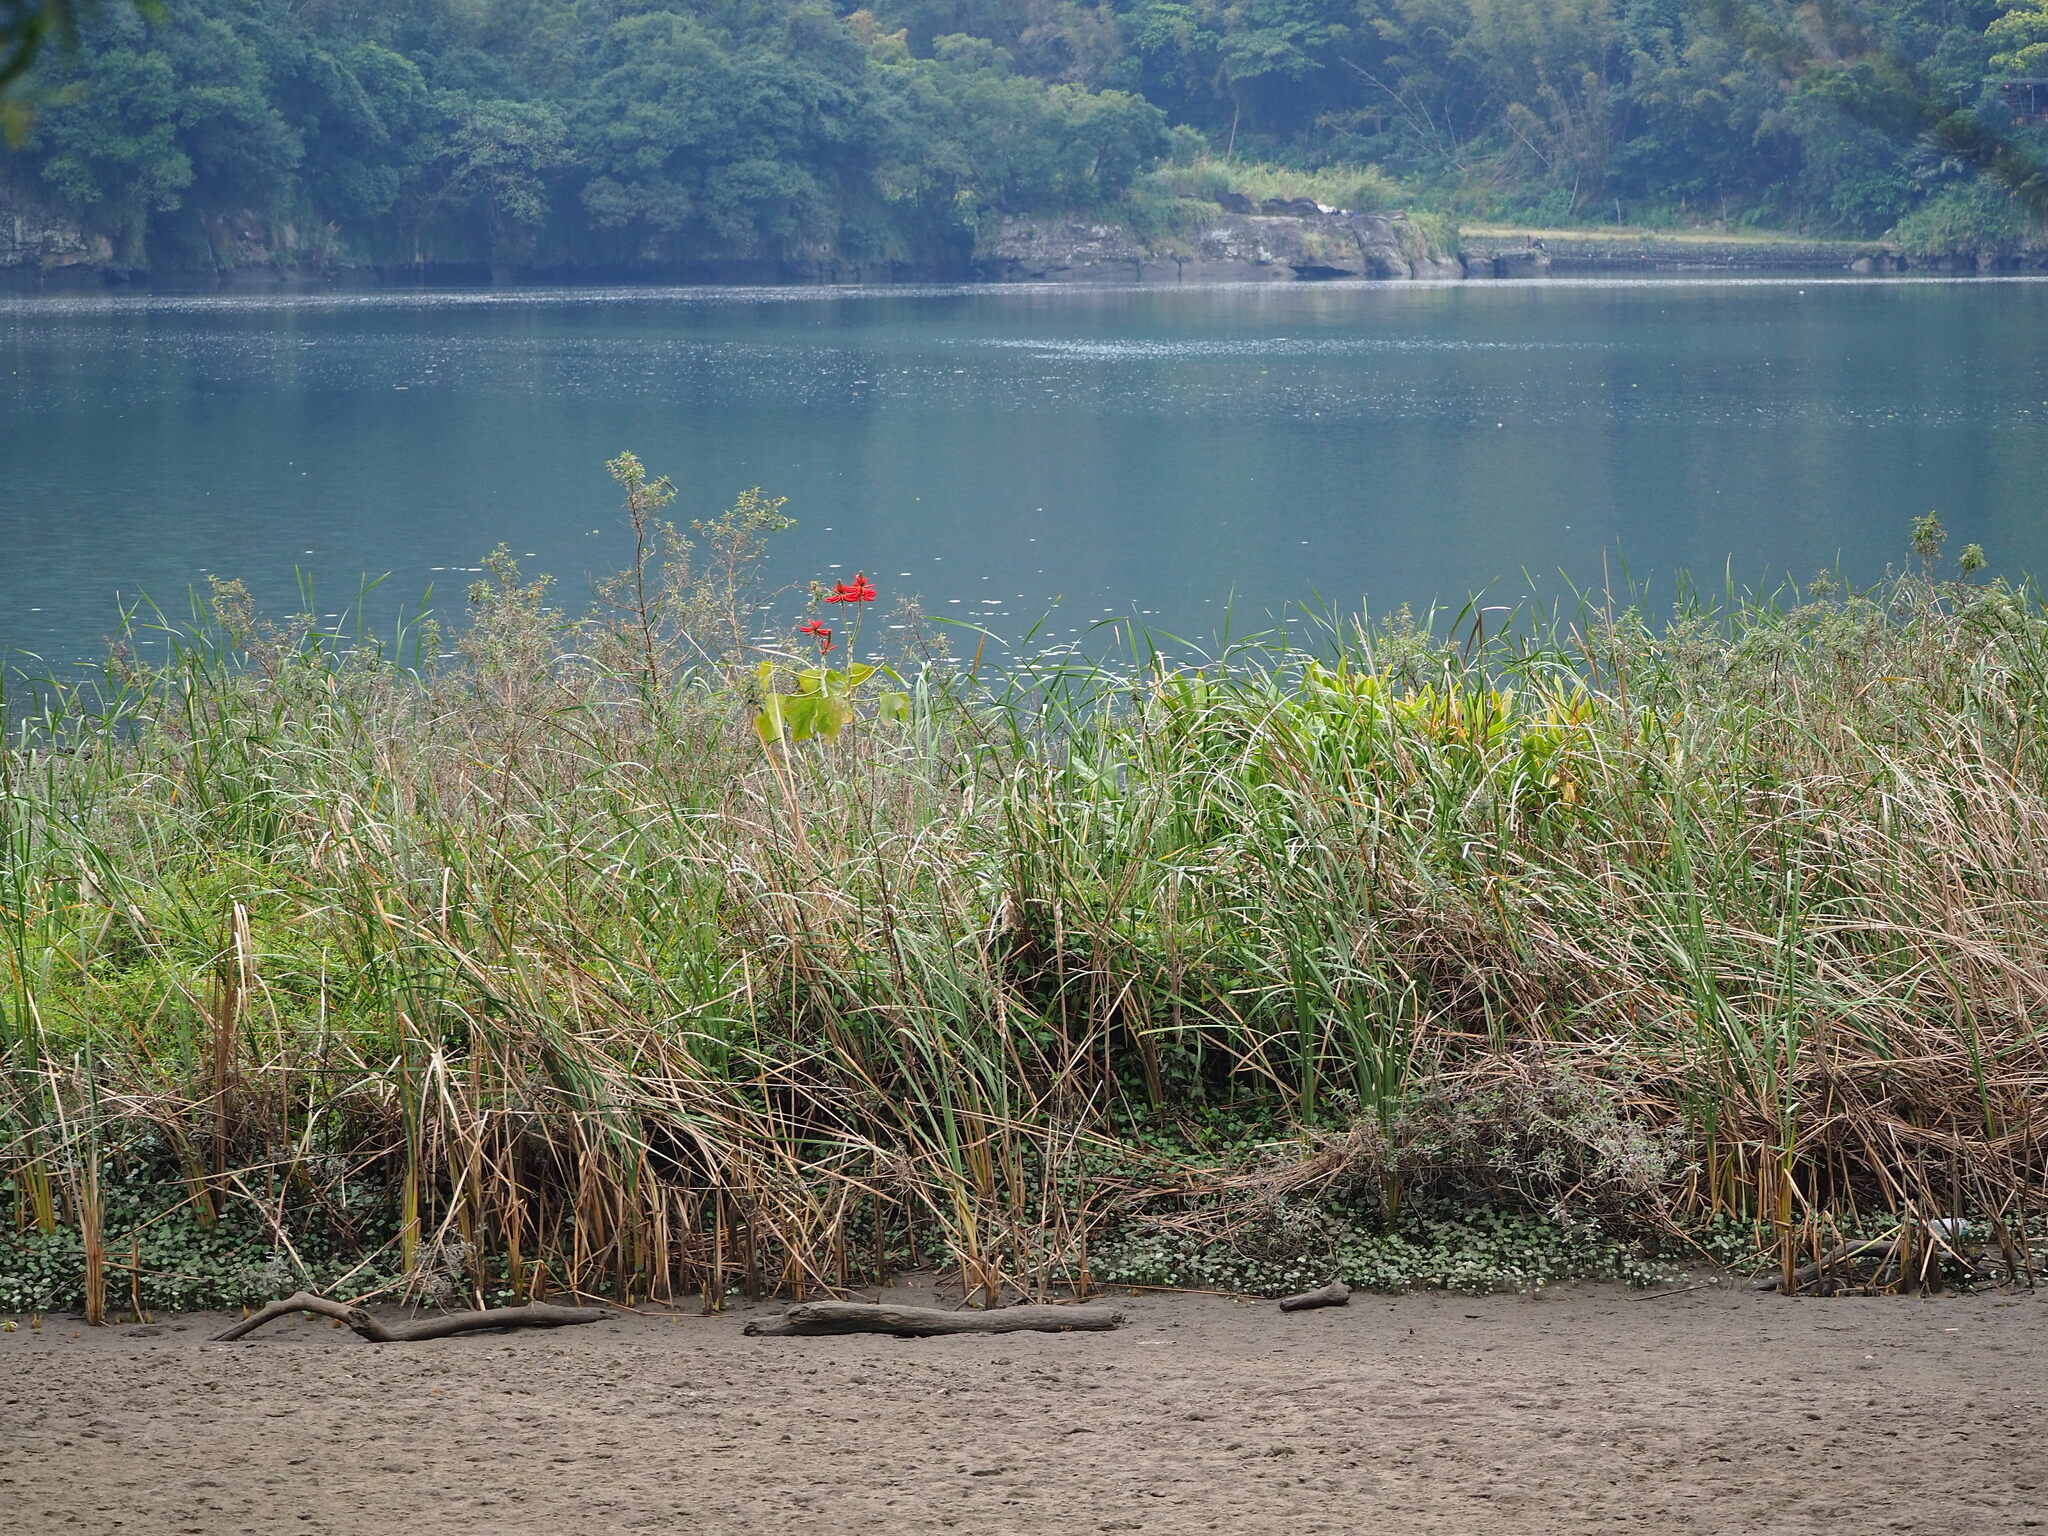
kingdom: Plantae
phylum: Tracheophyta
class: Magnoliopsida
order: Fabales
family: Fabaceae
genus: Erythrina
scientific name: Erythrina speciosa
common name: Coral tree
